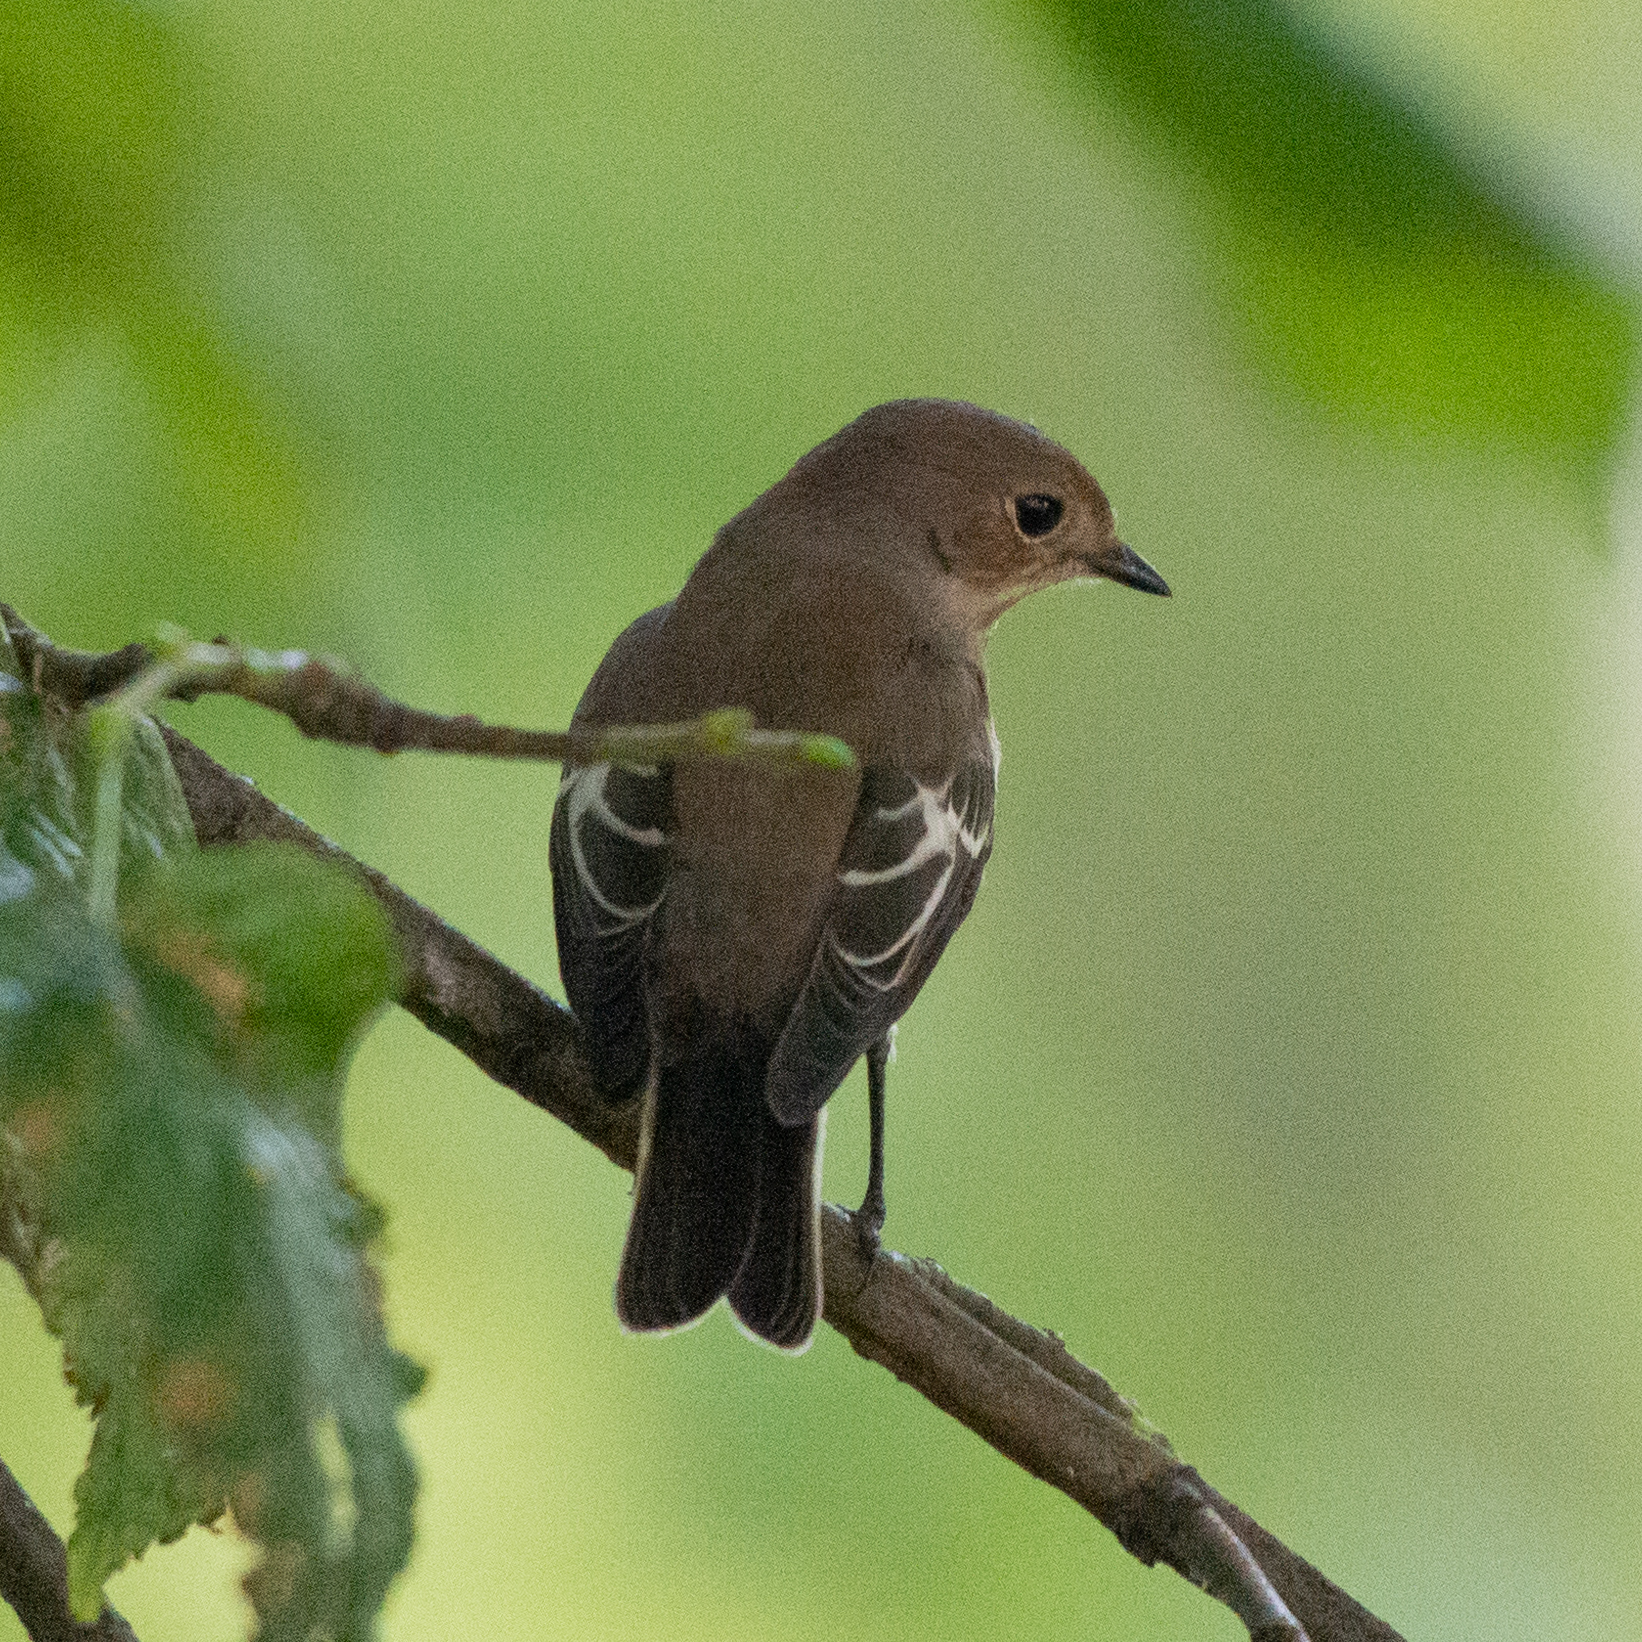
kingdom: Animalia
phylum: Chordata
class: Aves
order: Passeriformes
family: Muscicapidae
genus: Ficedula
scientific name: Ficedula hypoleuca
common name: European pied flycatcher
